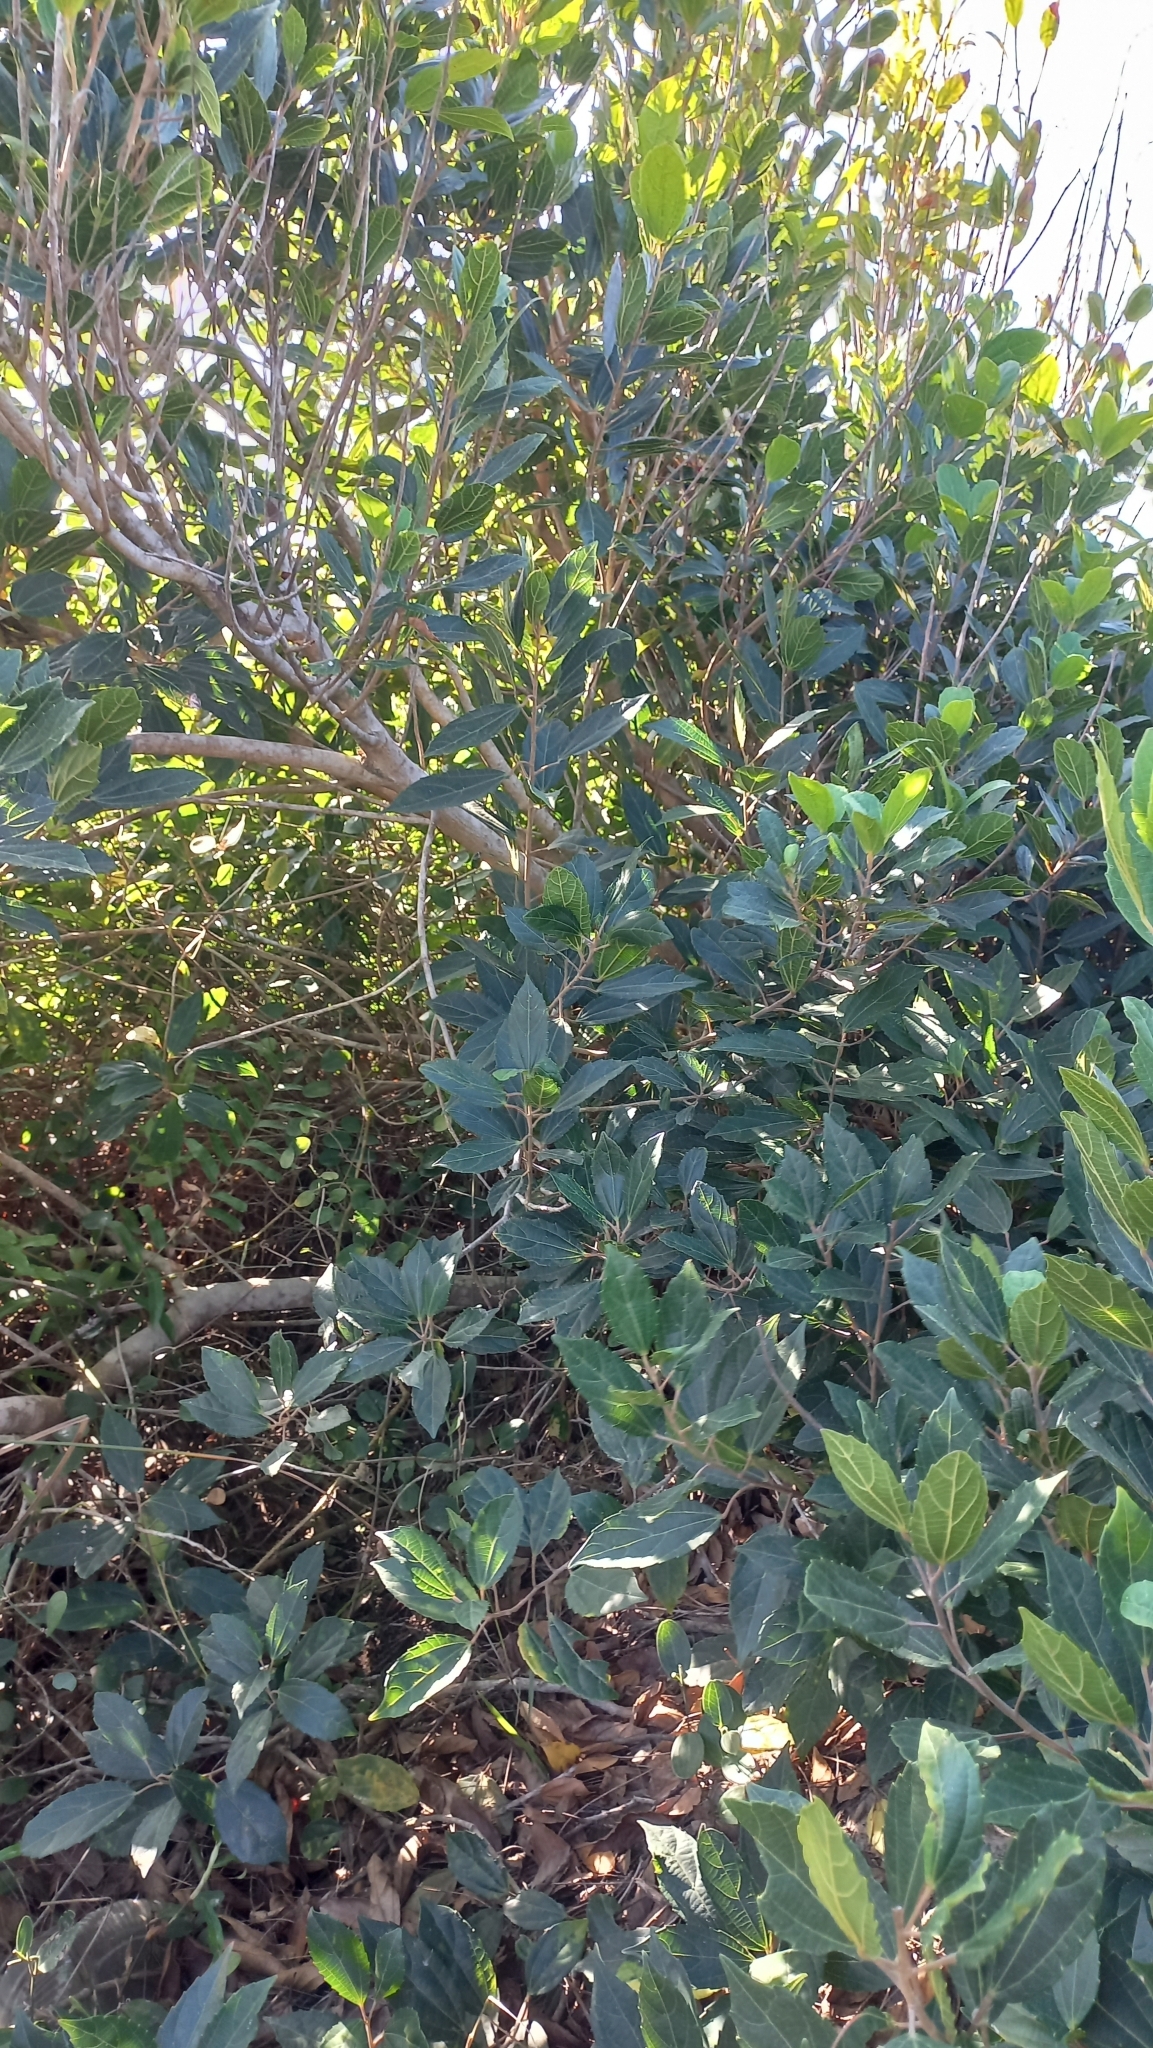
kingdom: Plantae
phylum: Tracheophyta
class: Magnoliopsida
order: Malpighiales
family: Euphorbiaceae
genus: Alchornea
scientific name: Alchornea triplinervia
